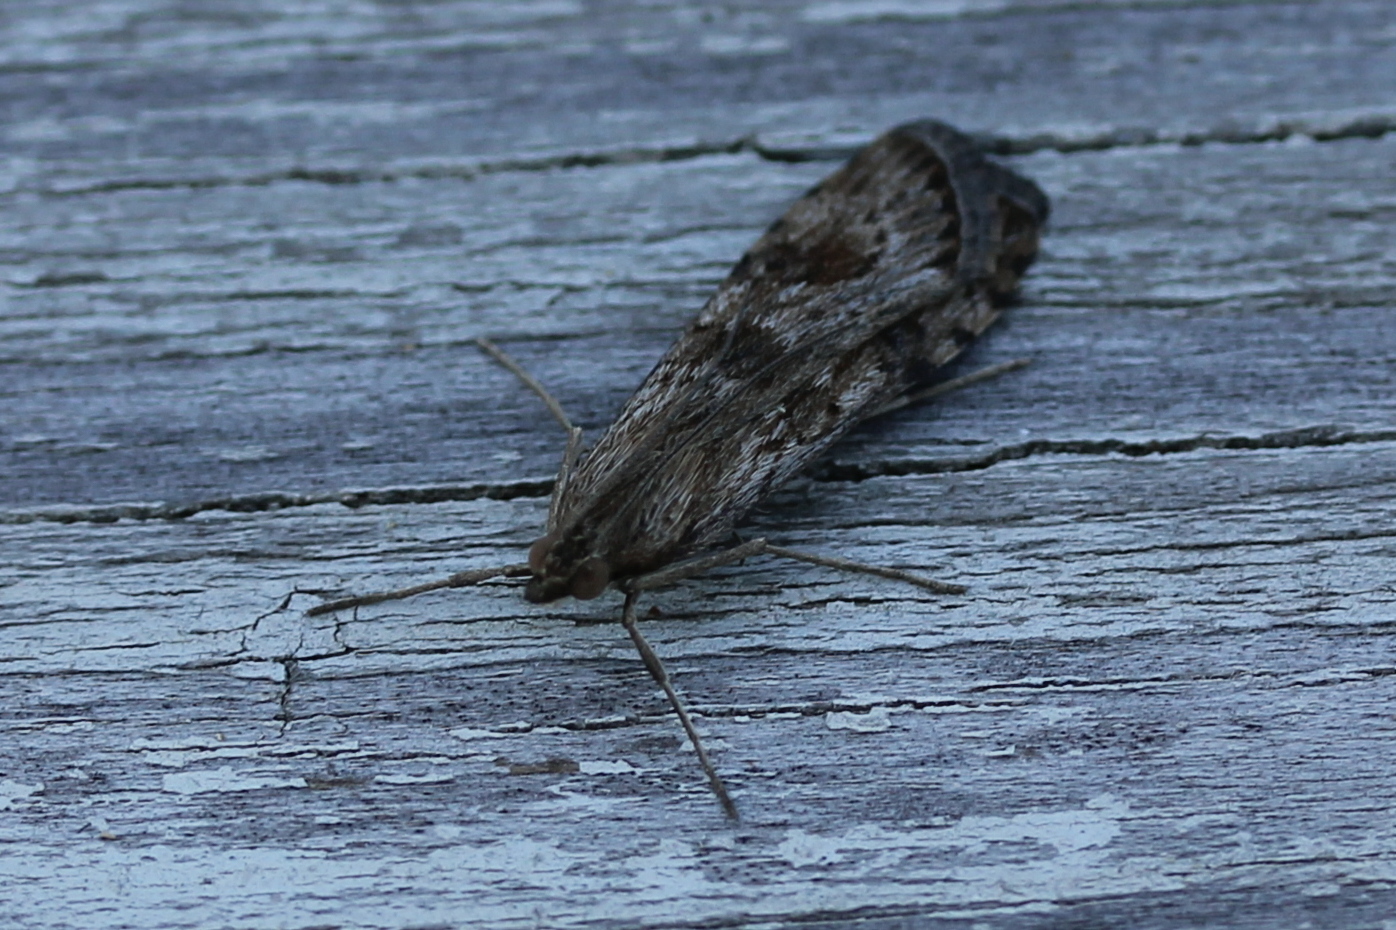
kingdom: Animalia
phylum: Arthropoda
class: Insecta
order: Lepidoptera
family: Crambidae
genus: Nomophila
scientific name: Nomophila nearctica
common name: American rush veneer
